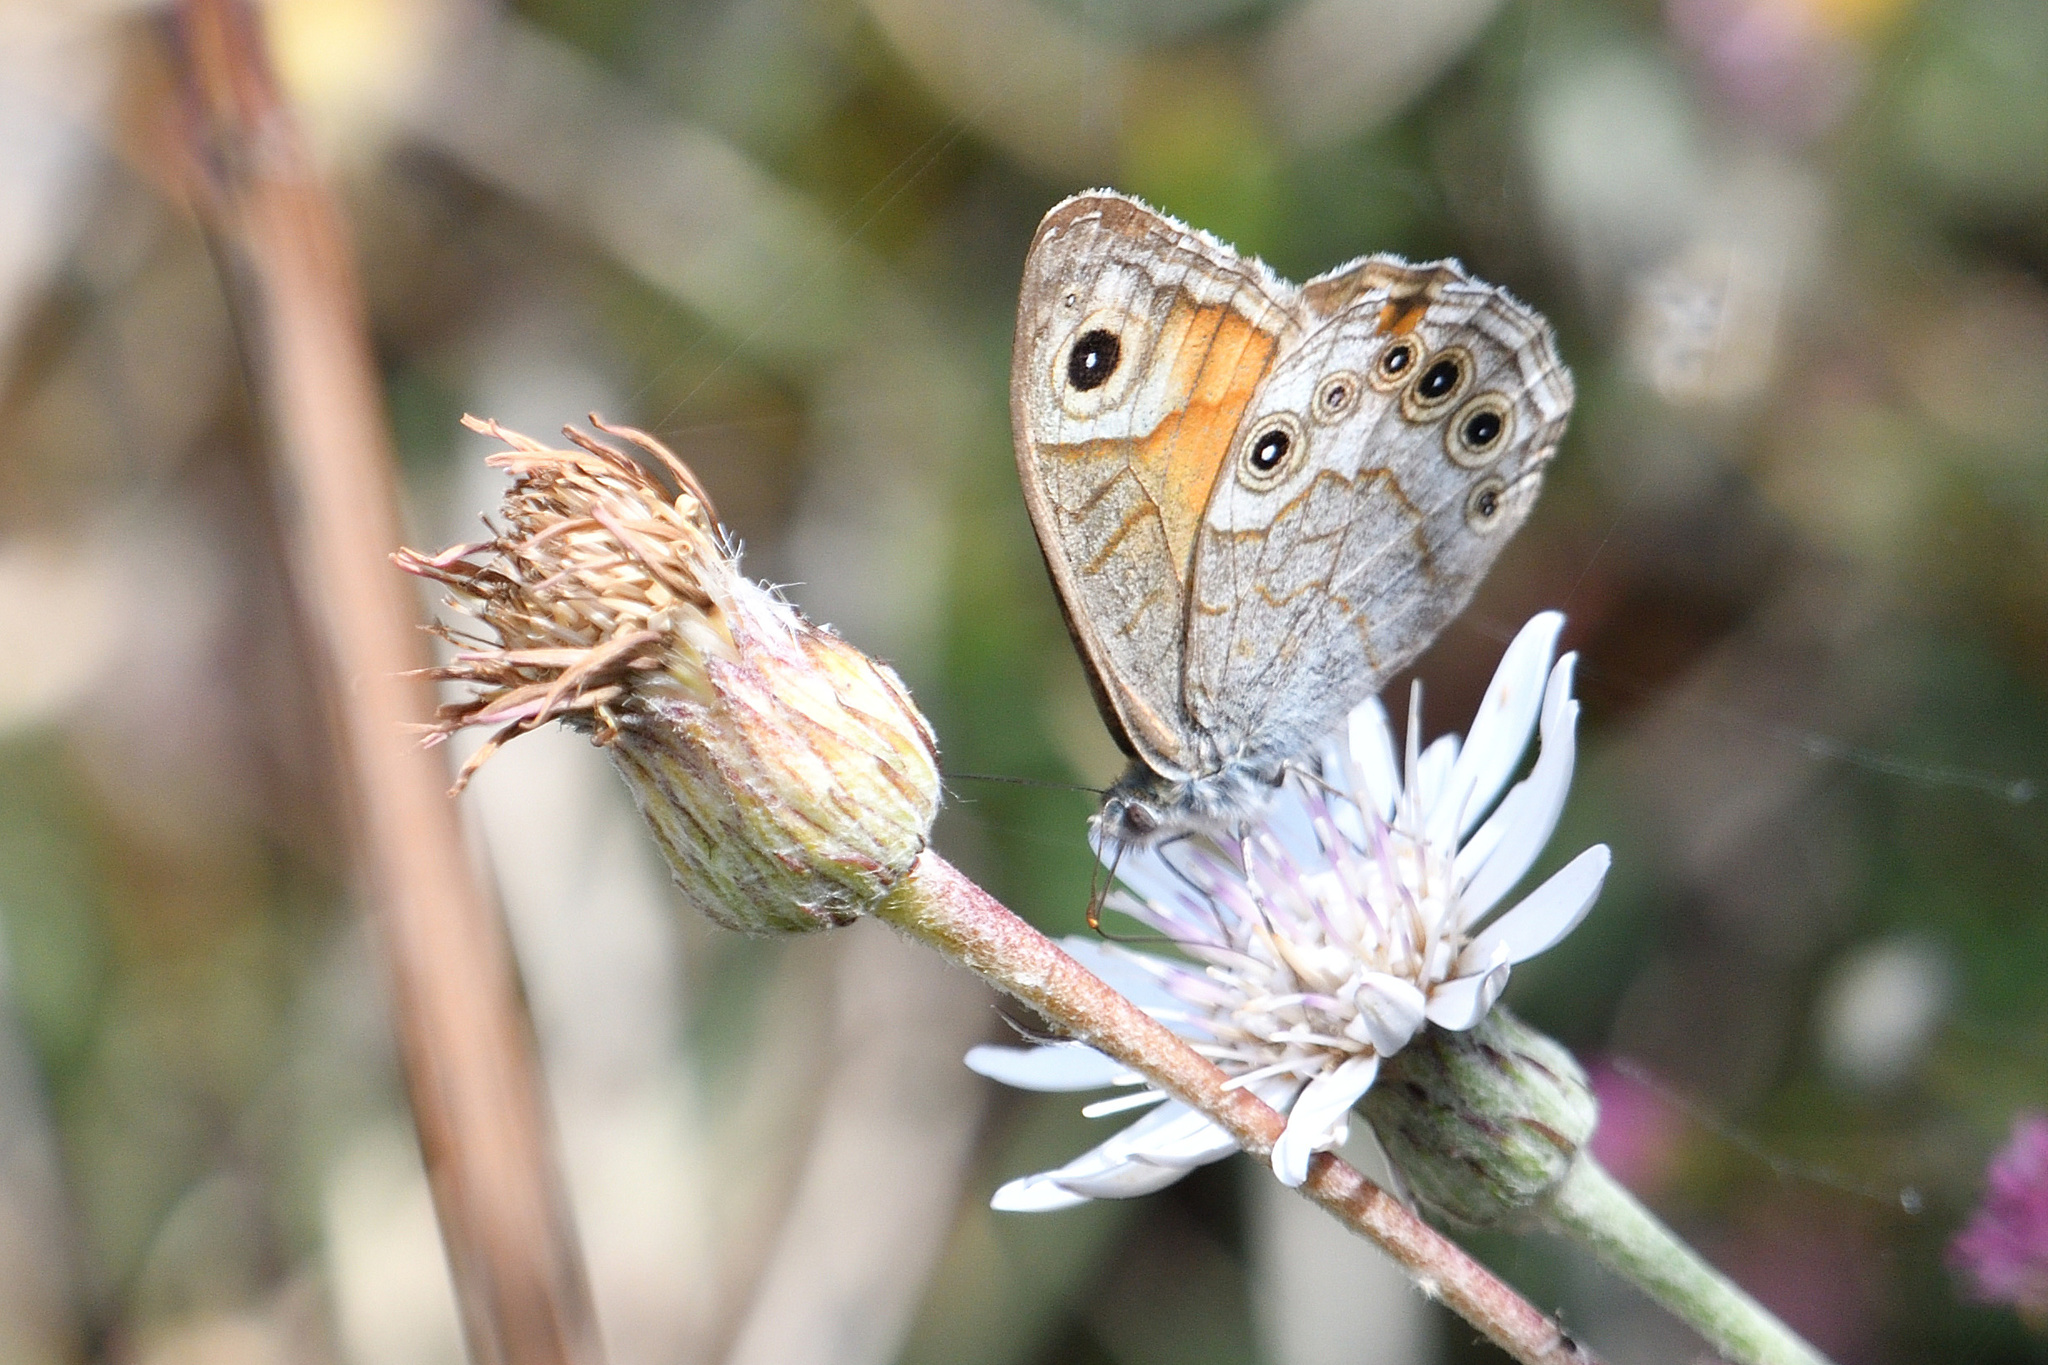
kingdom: Animalia
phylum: Arthropoda
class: Insecta
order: Lepidoptera
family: Nymphalidae
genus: Pararge
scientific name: Pararge Lasiommata schakra
